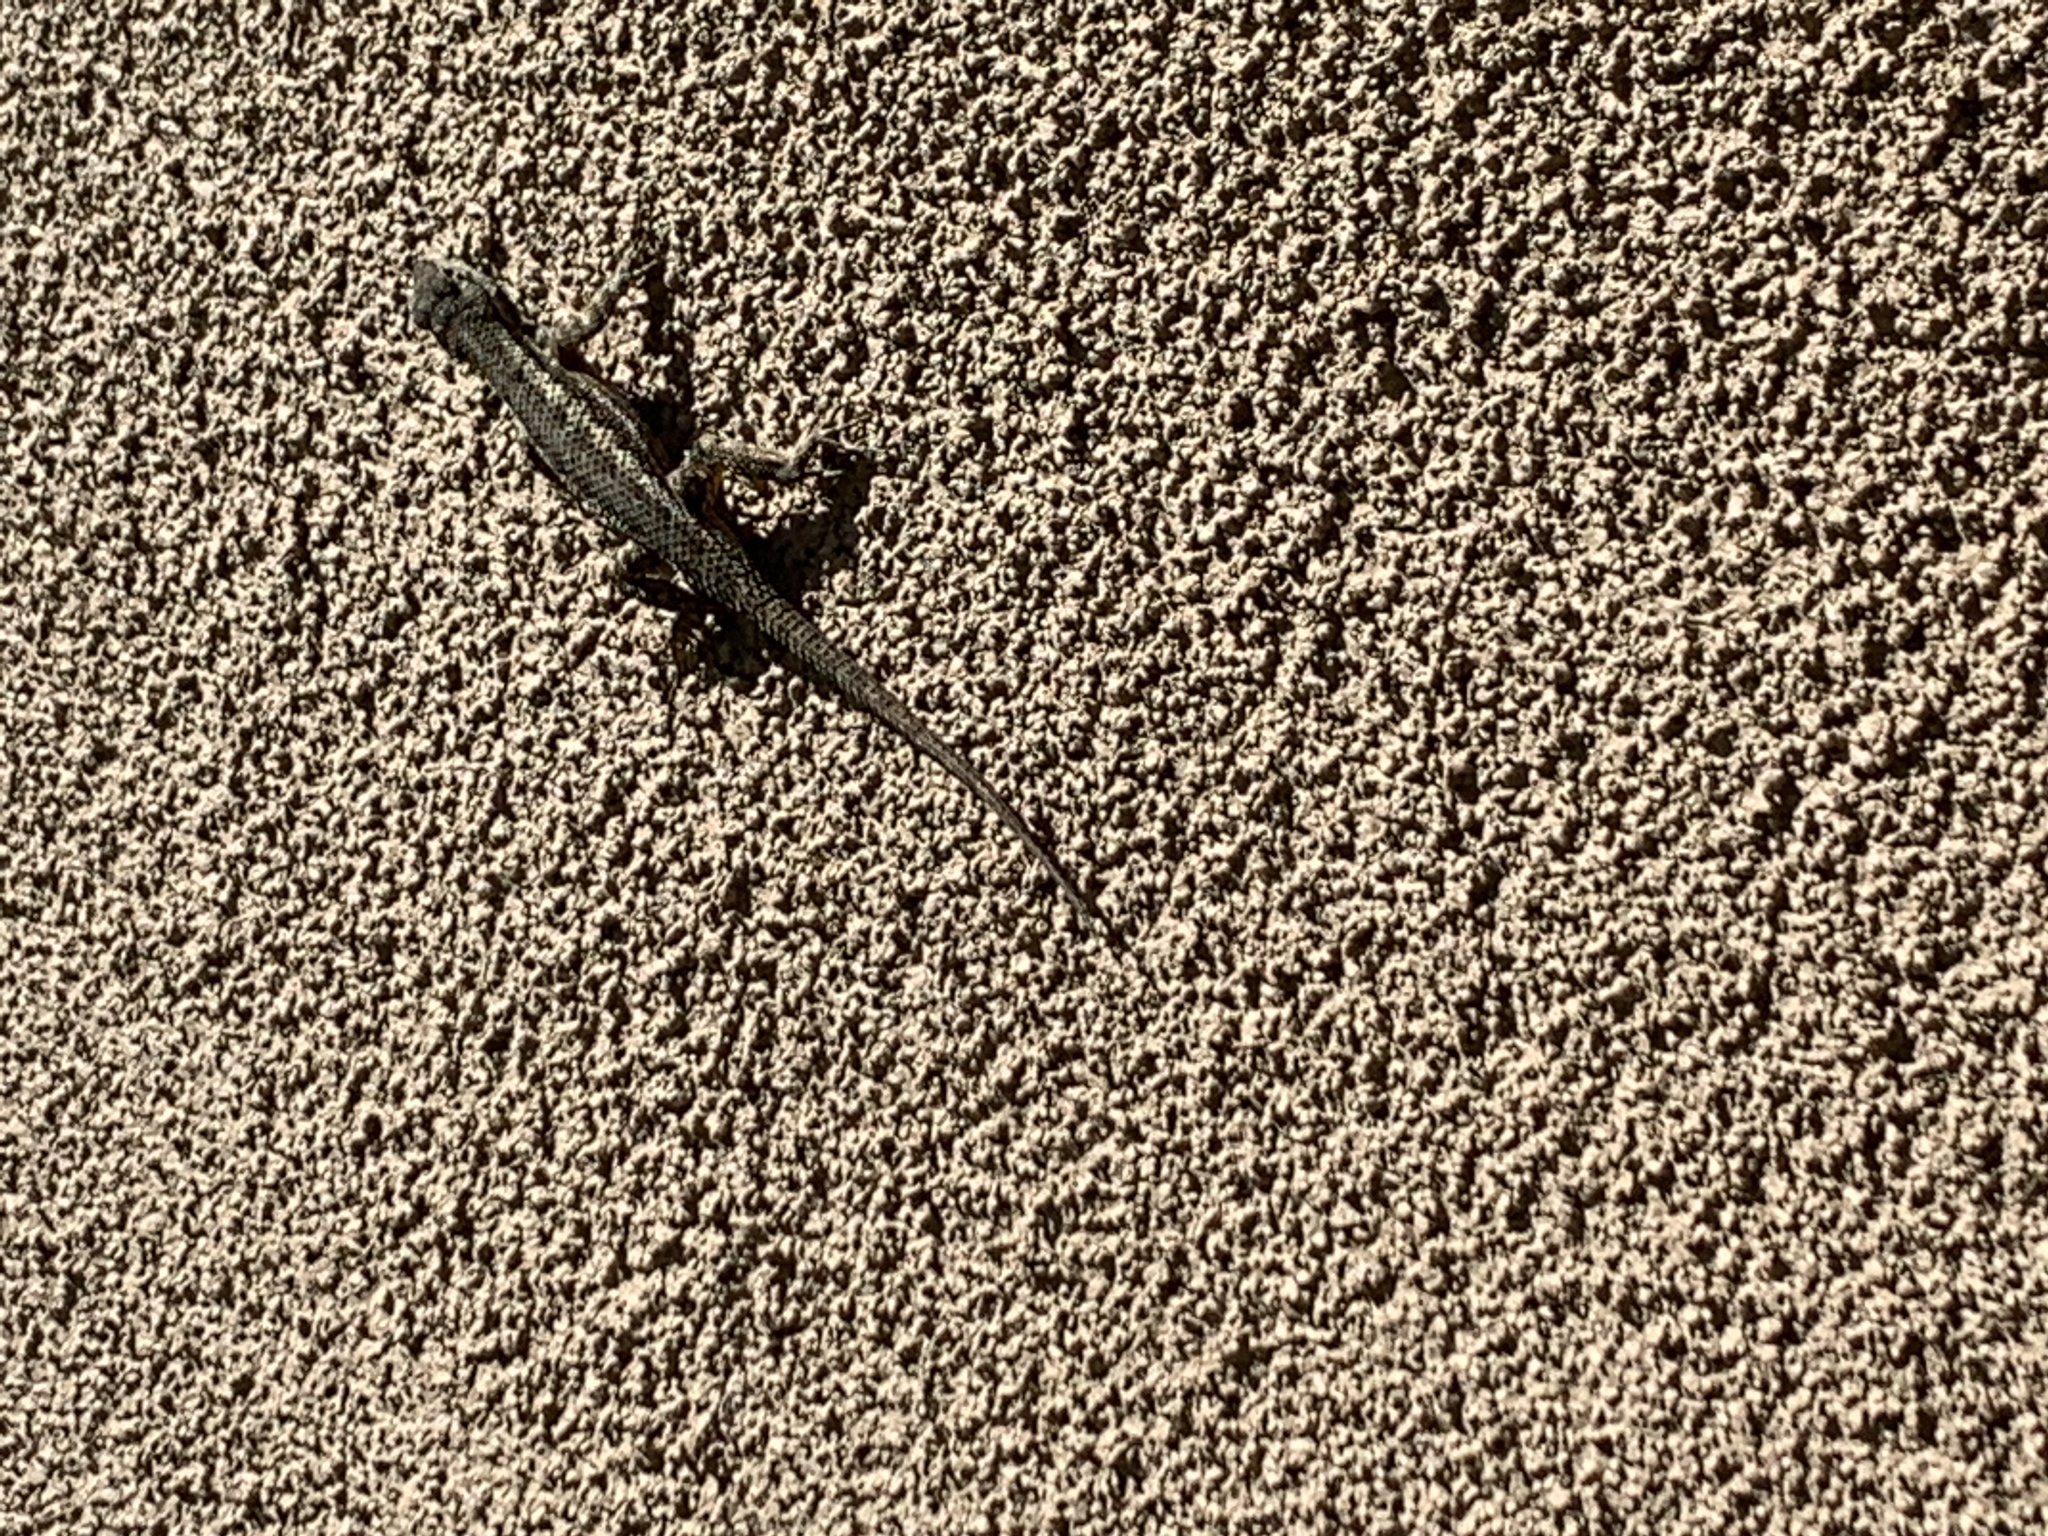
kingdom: Animalia
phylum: Chordata
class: Squamata
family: Phrynosomatidae
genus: Sceloporus
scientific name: Sceloporus occidentalis
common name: Western fence lizard
